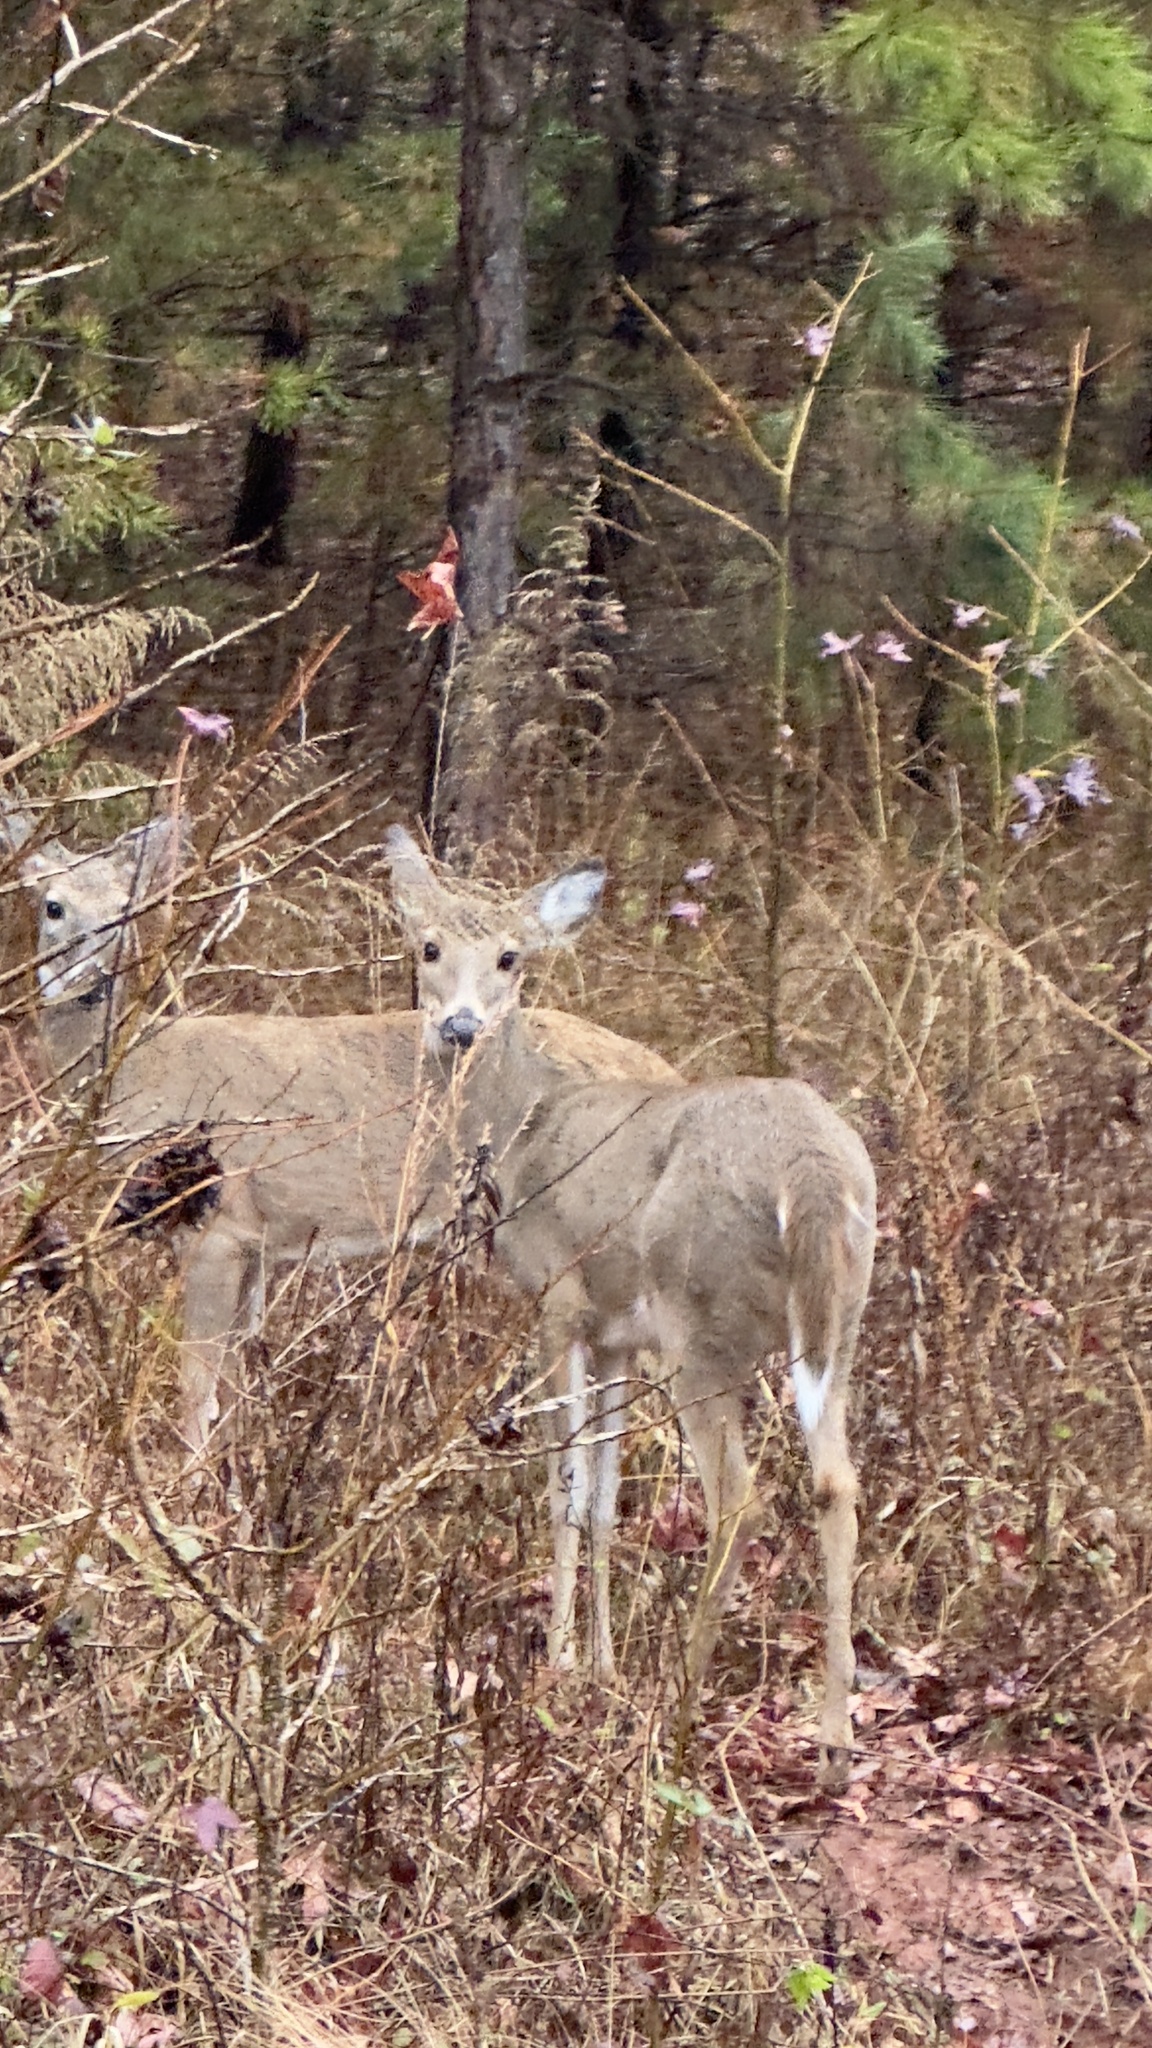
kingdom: Animalia
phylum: Chordata
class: Mammalia
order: Artiodactyla
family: Cervidae
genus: Odocoileus
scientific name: Odocoileus virginianus
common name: White-tailed deer
